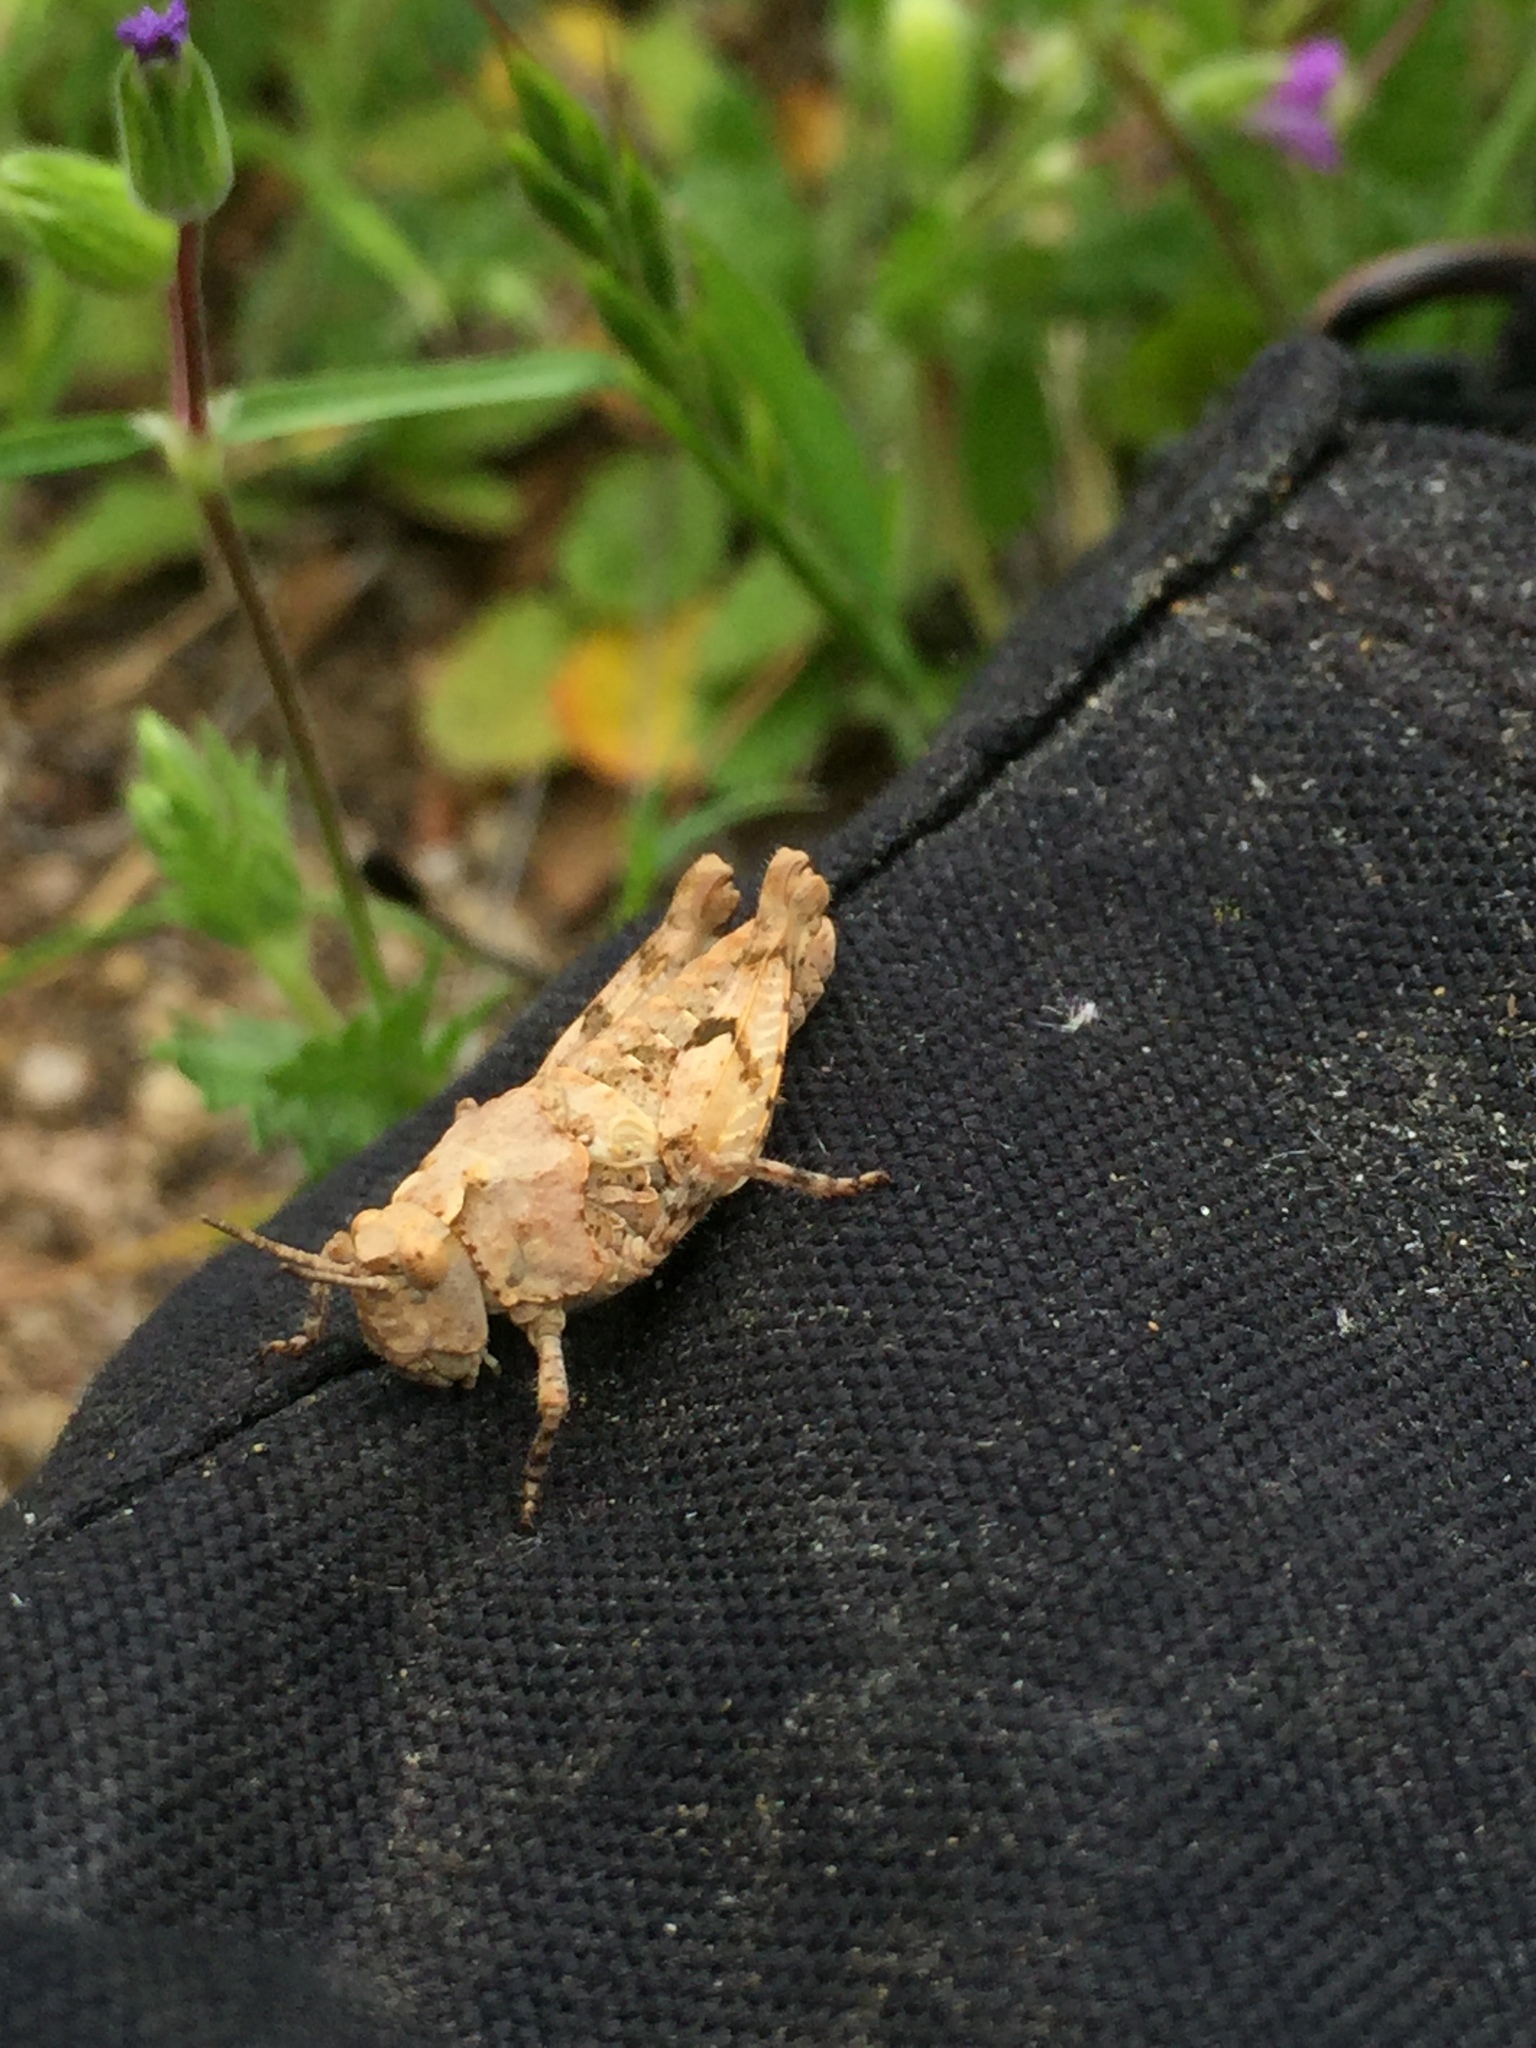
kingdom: Animalia
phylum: Arthropoda
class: Insecta
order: Orthoptera
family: Acrididae
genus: Esselenia
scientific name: Esselenia vanduzeei
